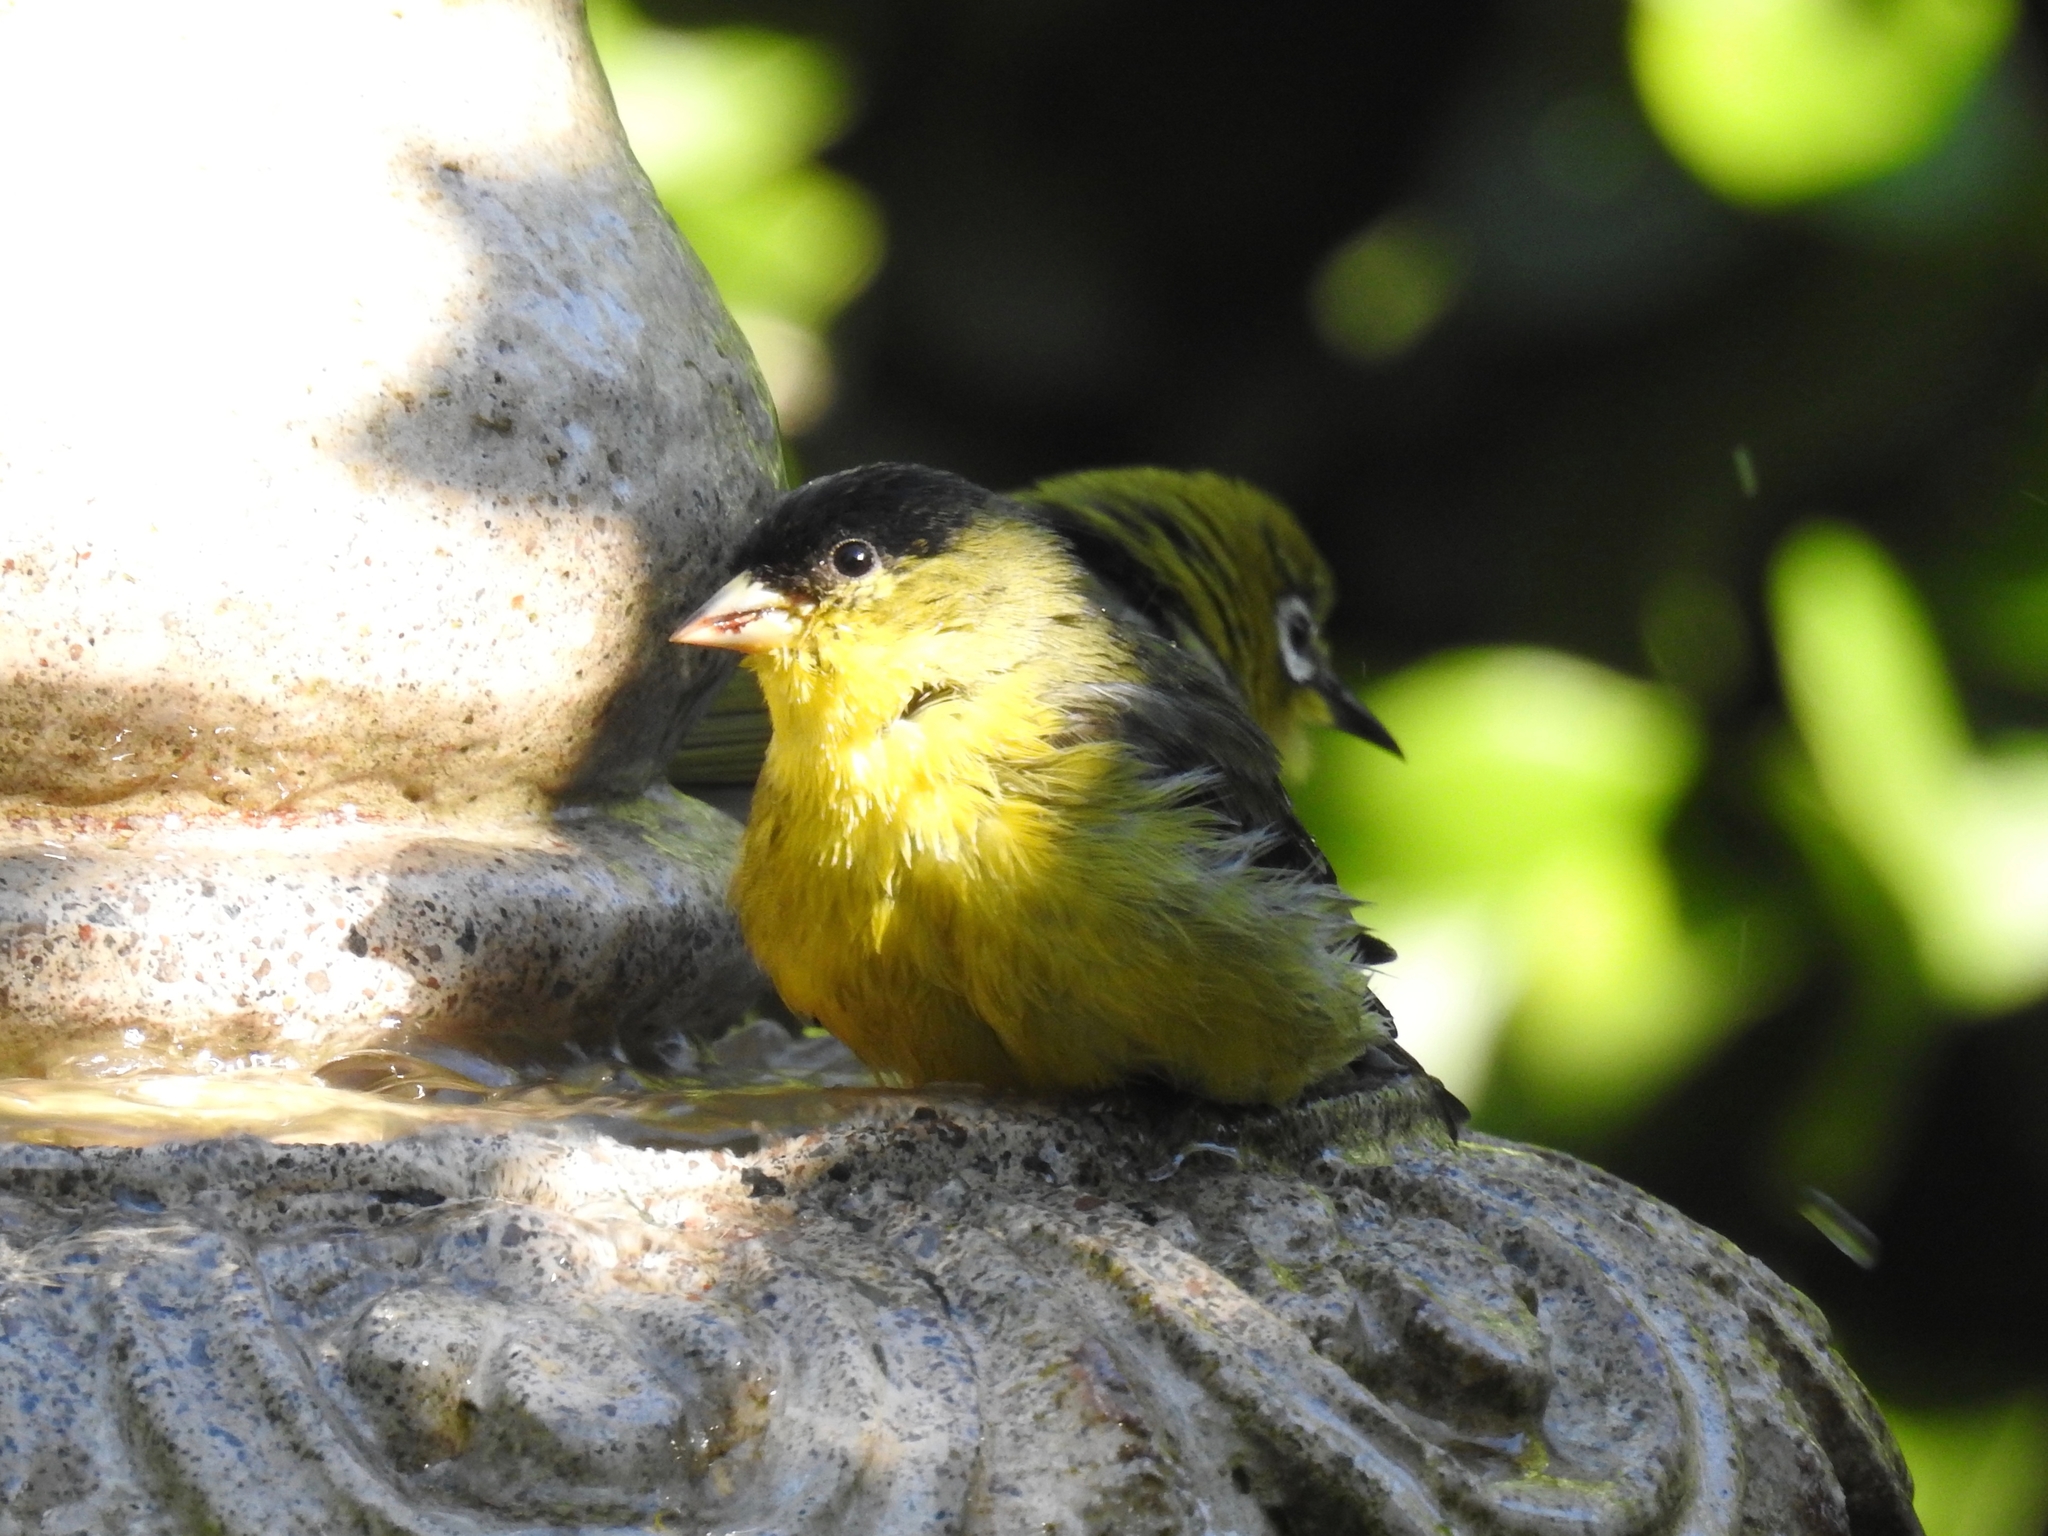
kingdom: Animalia
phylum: Chordata
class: Aves
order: Passeriformes
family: Fringillidae
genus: Spinus
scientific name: Spinus psaltria
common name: Lesser goldfinch
